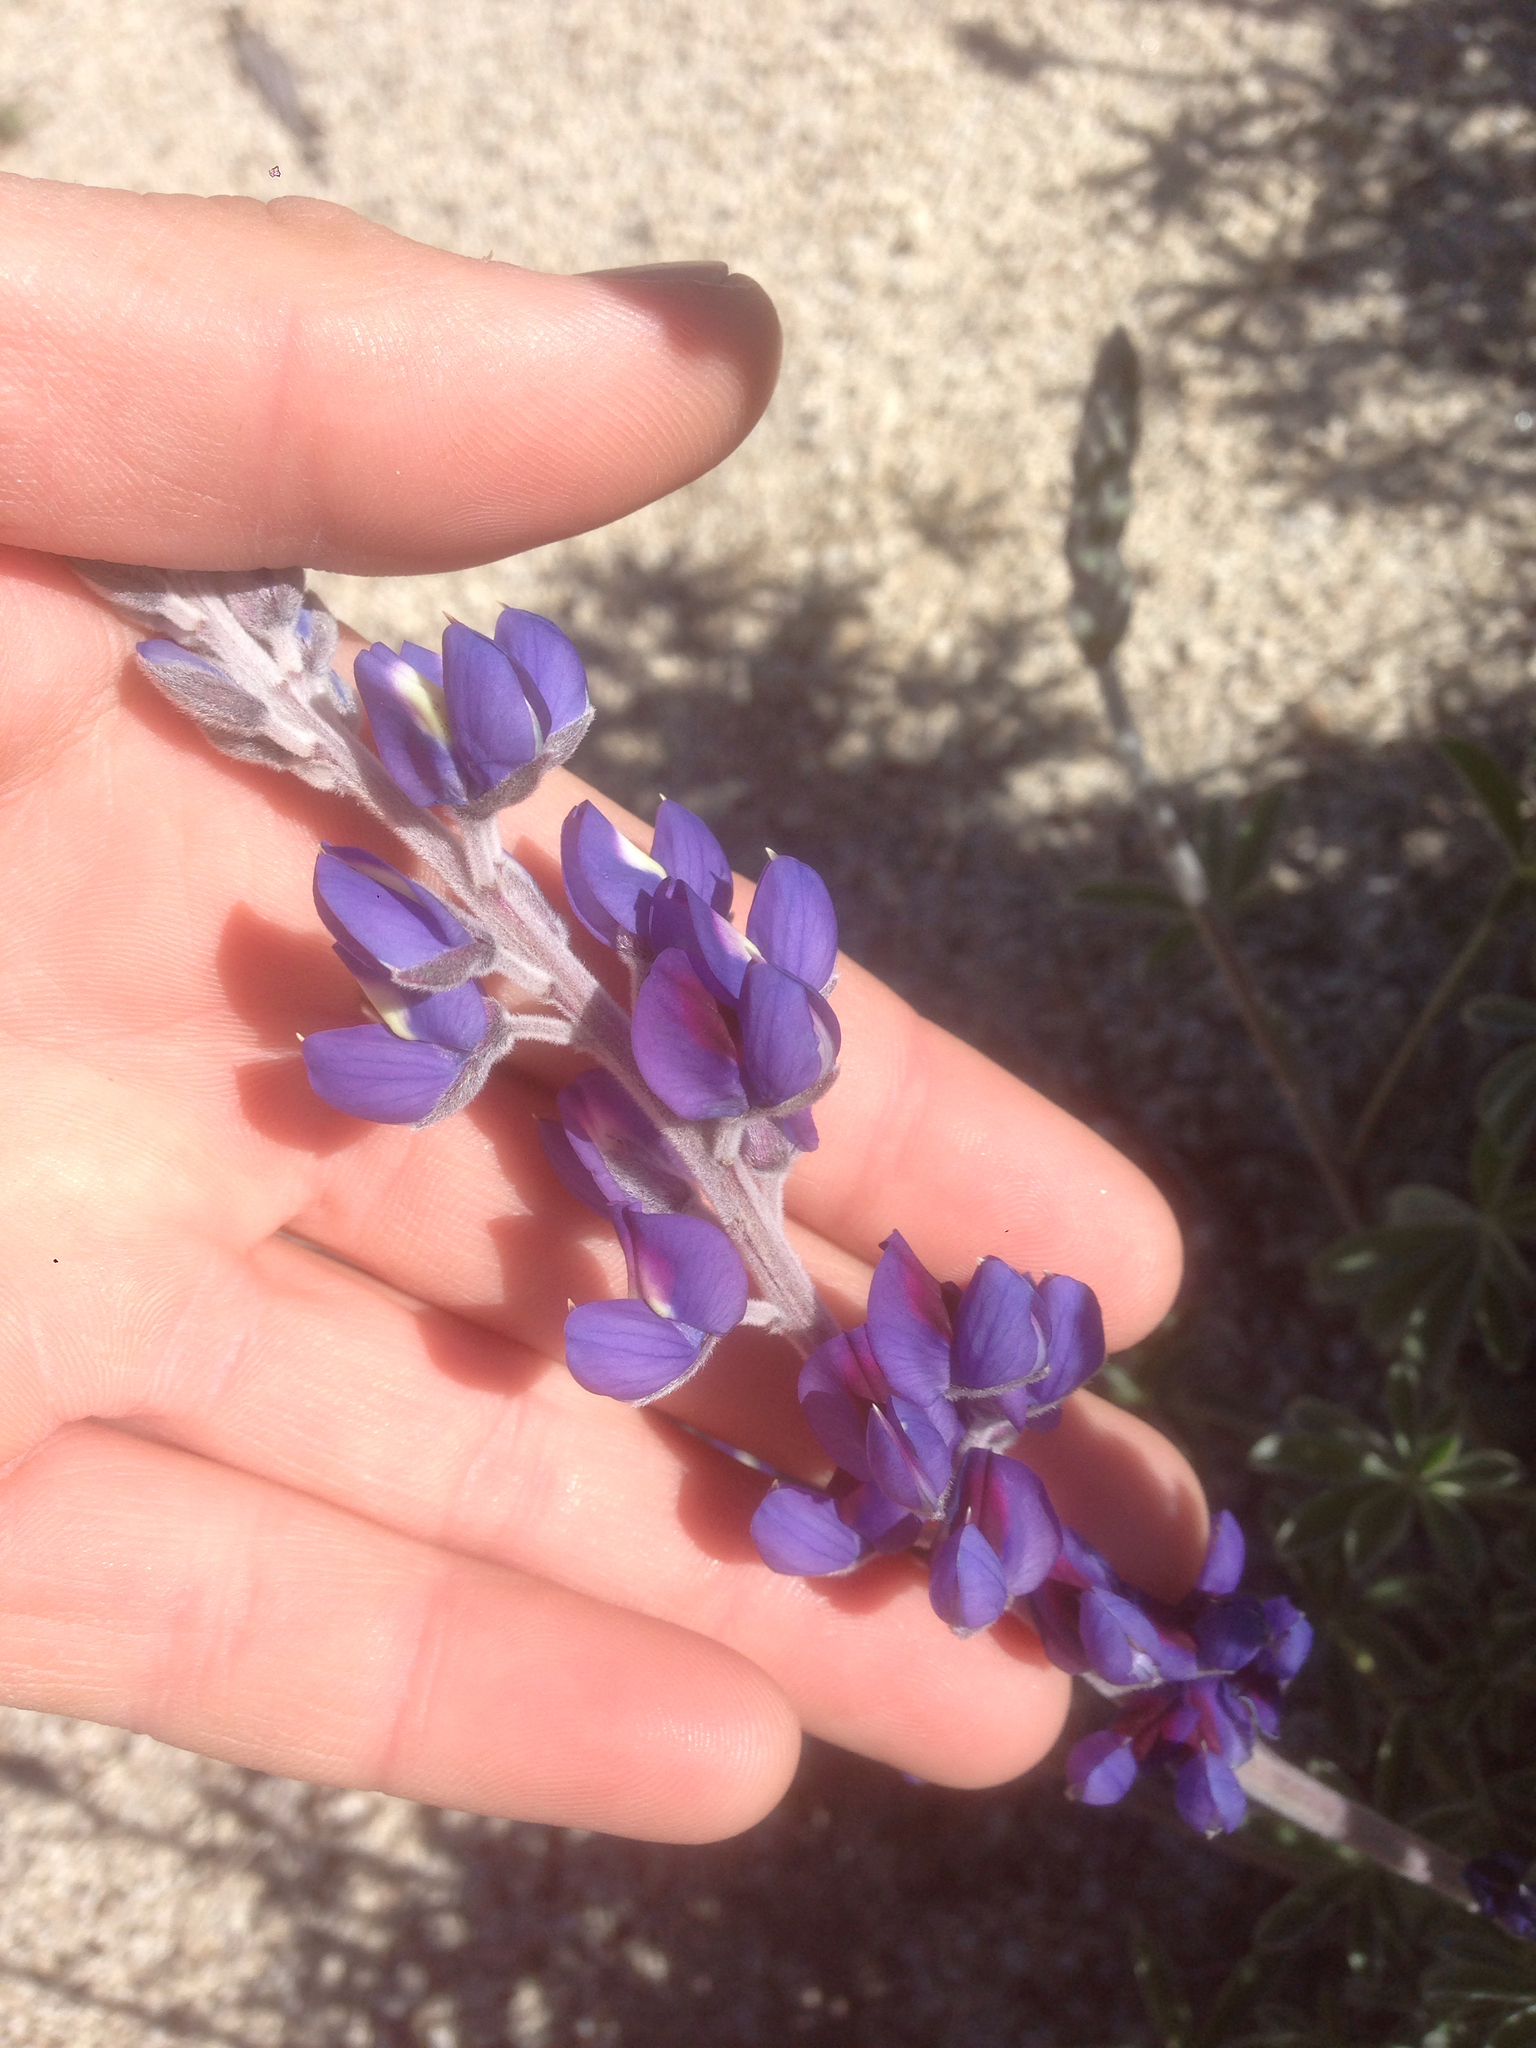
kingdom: Plantae
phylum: Tracheophyta
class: Magnoliopsida
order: Fabales
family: Fabaceae
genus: Lupinus
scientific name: Lupinus excubitus
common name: Grape soda lupine
